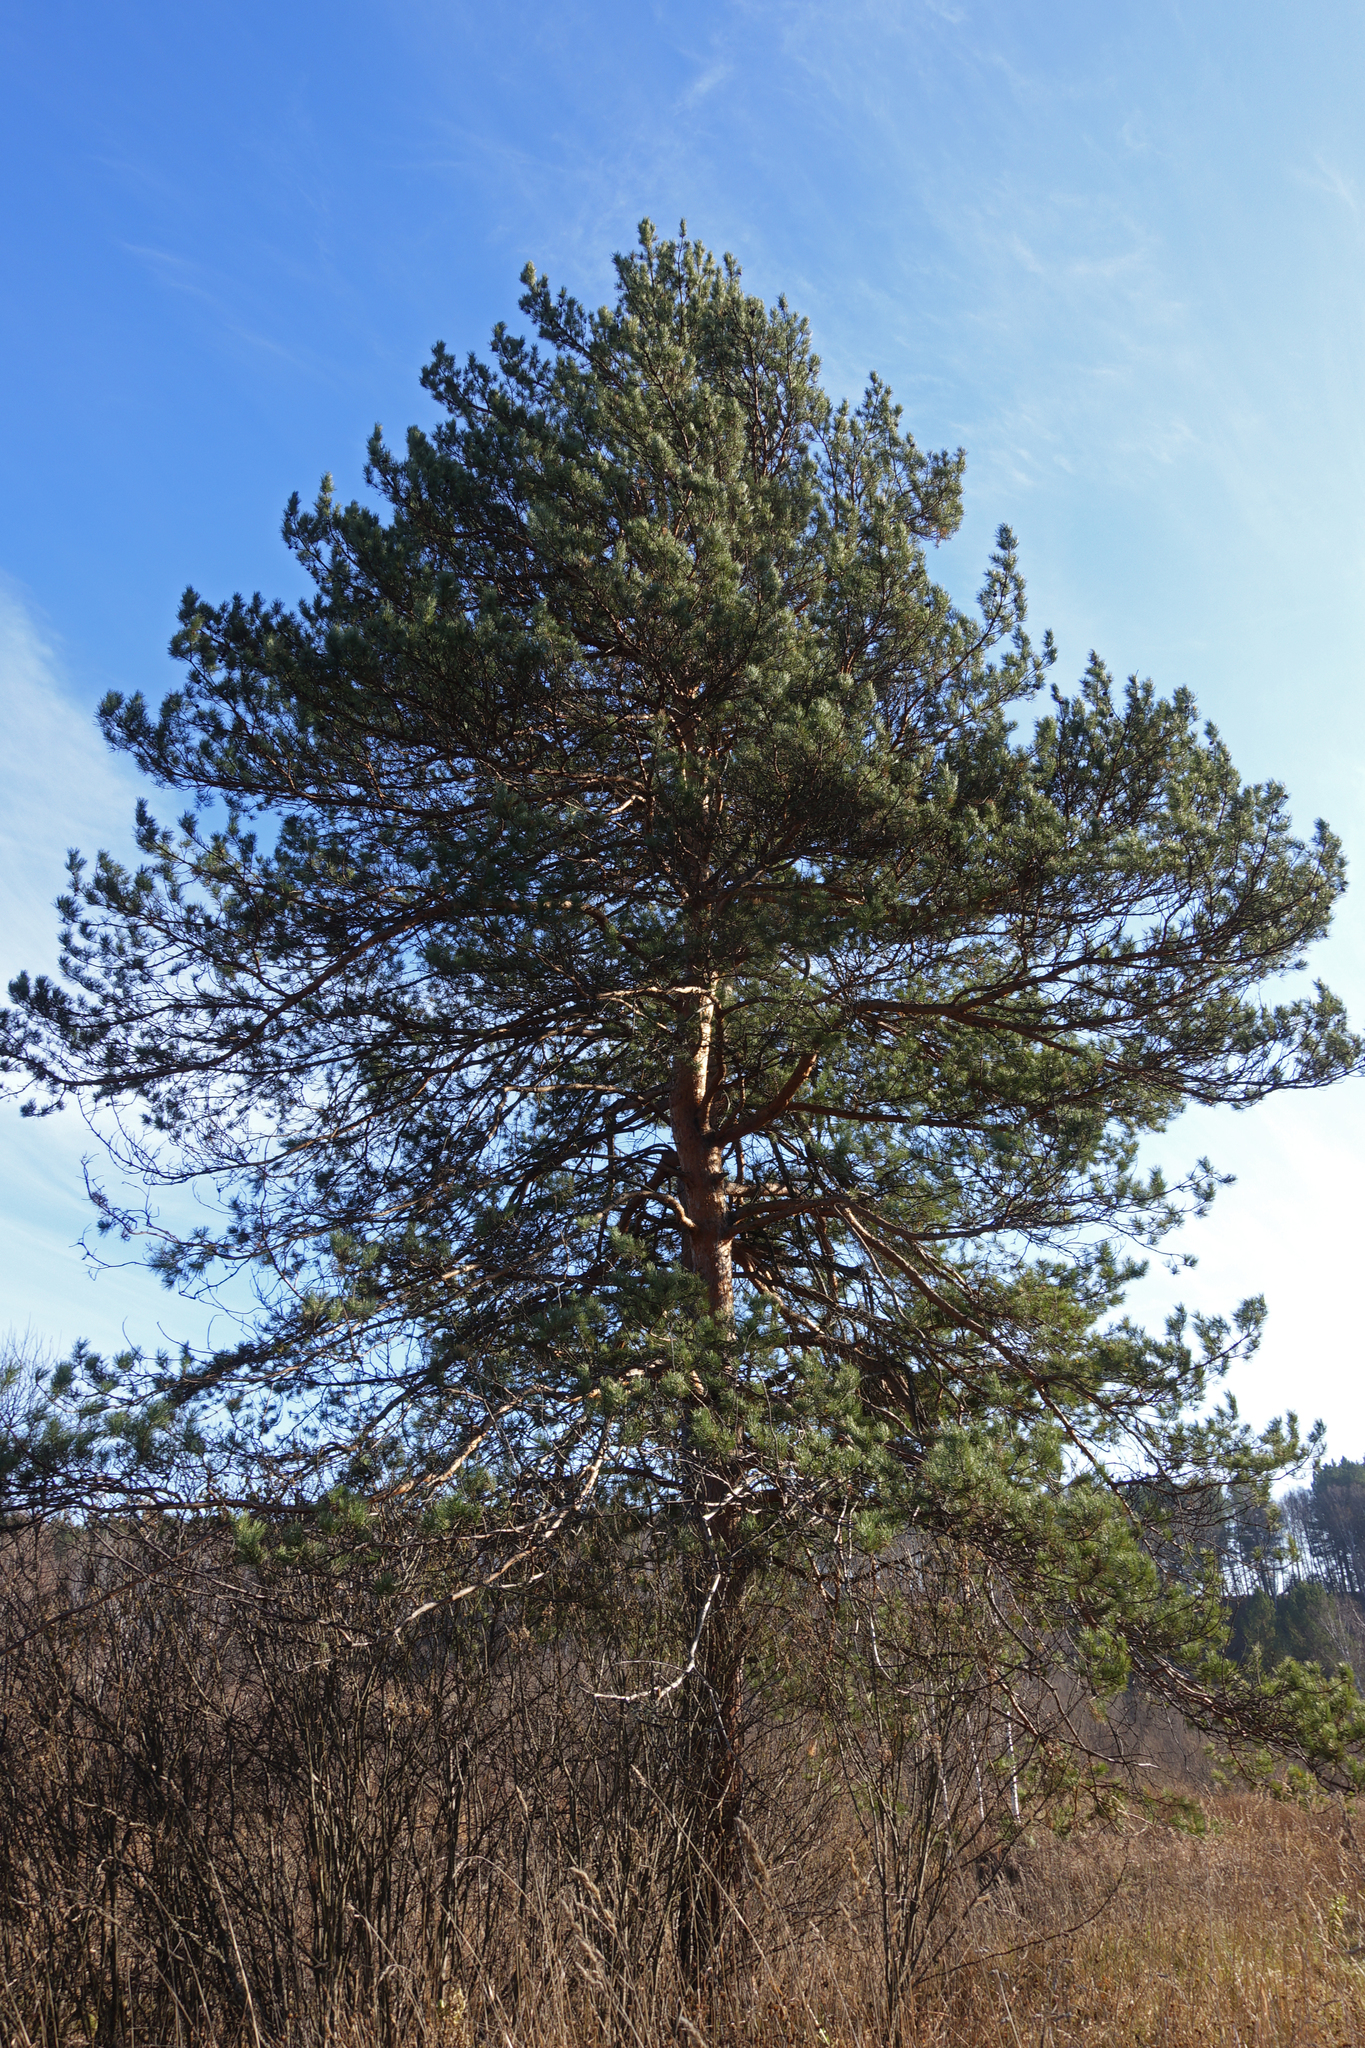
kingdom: Plantae
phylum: Tracheophyta
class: Pinopsida
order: Pinales
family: Pinaceae
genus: Pinus
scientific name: Pinus sylvestris
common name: Scots pine
